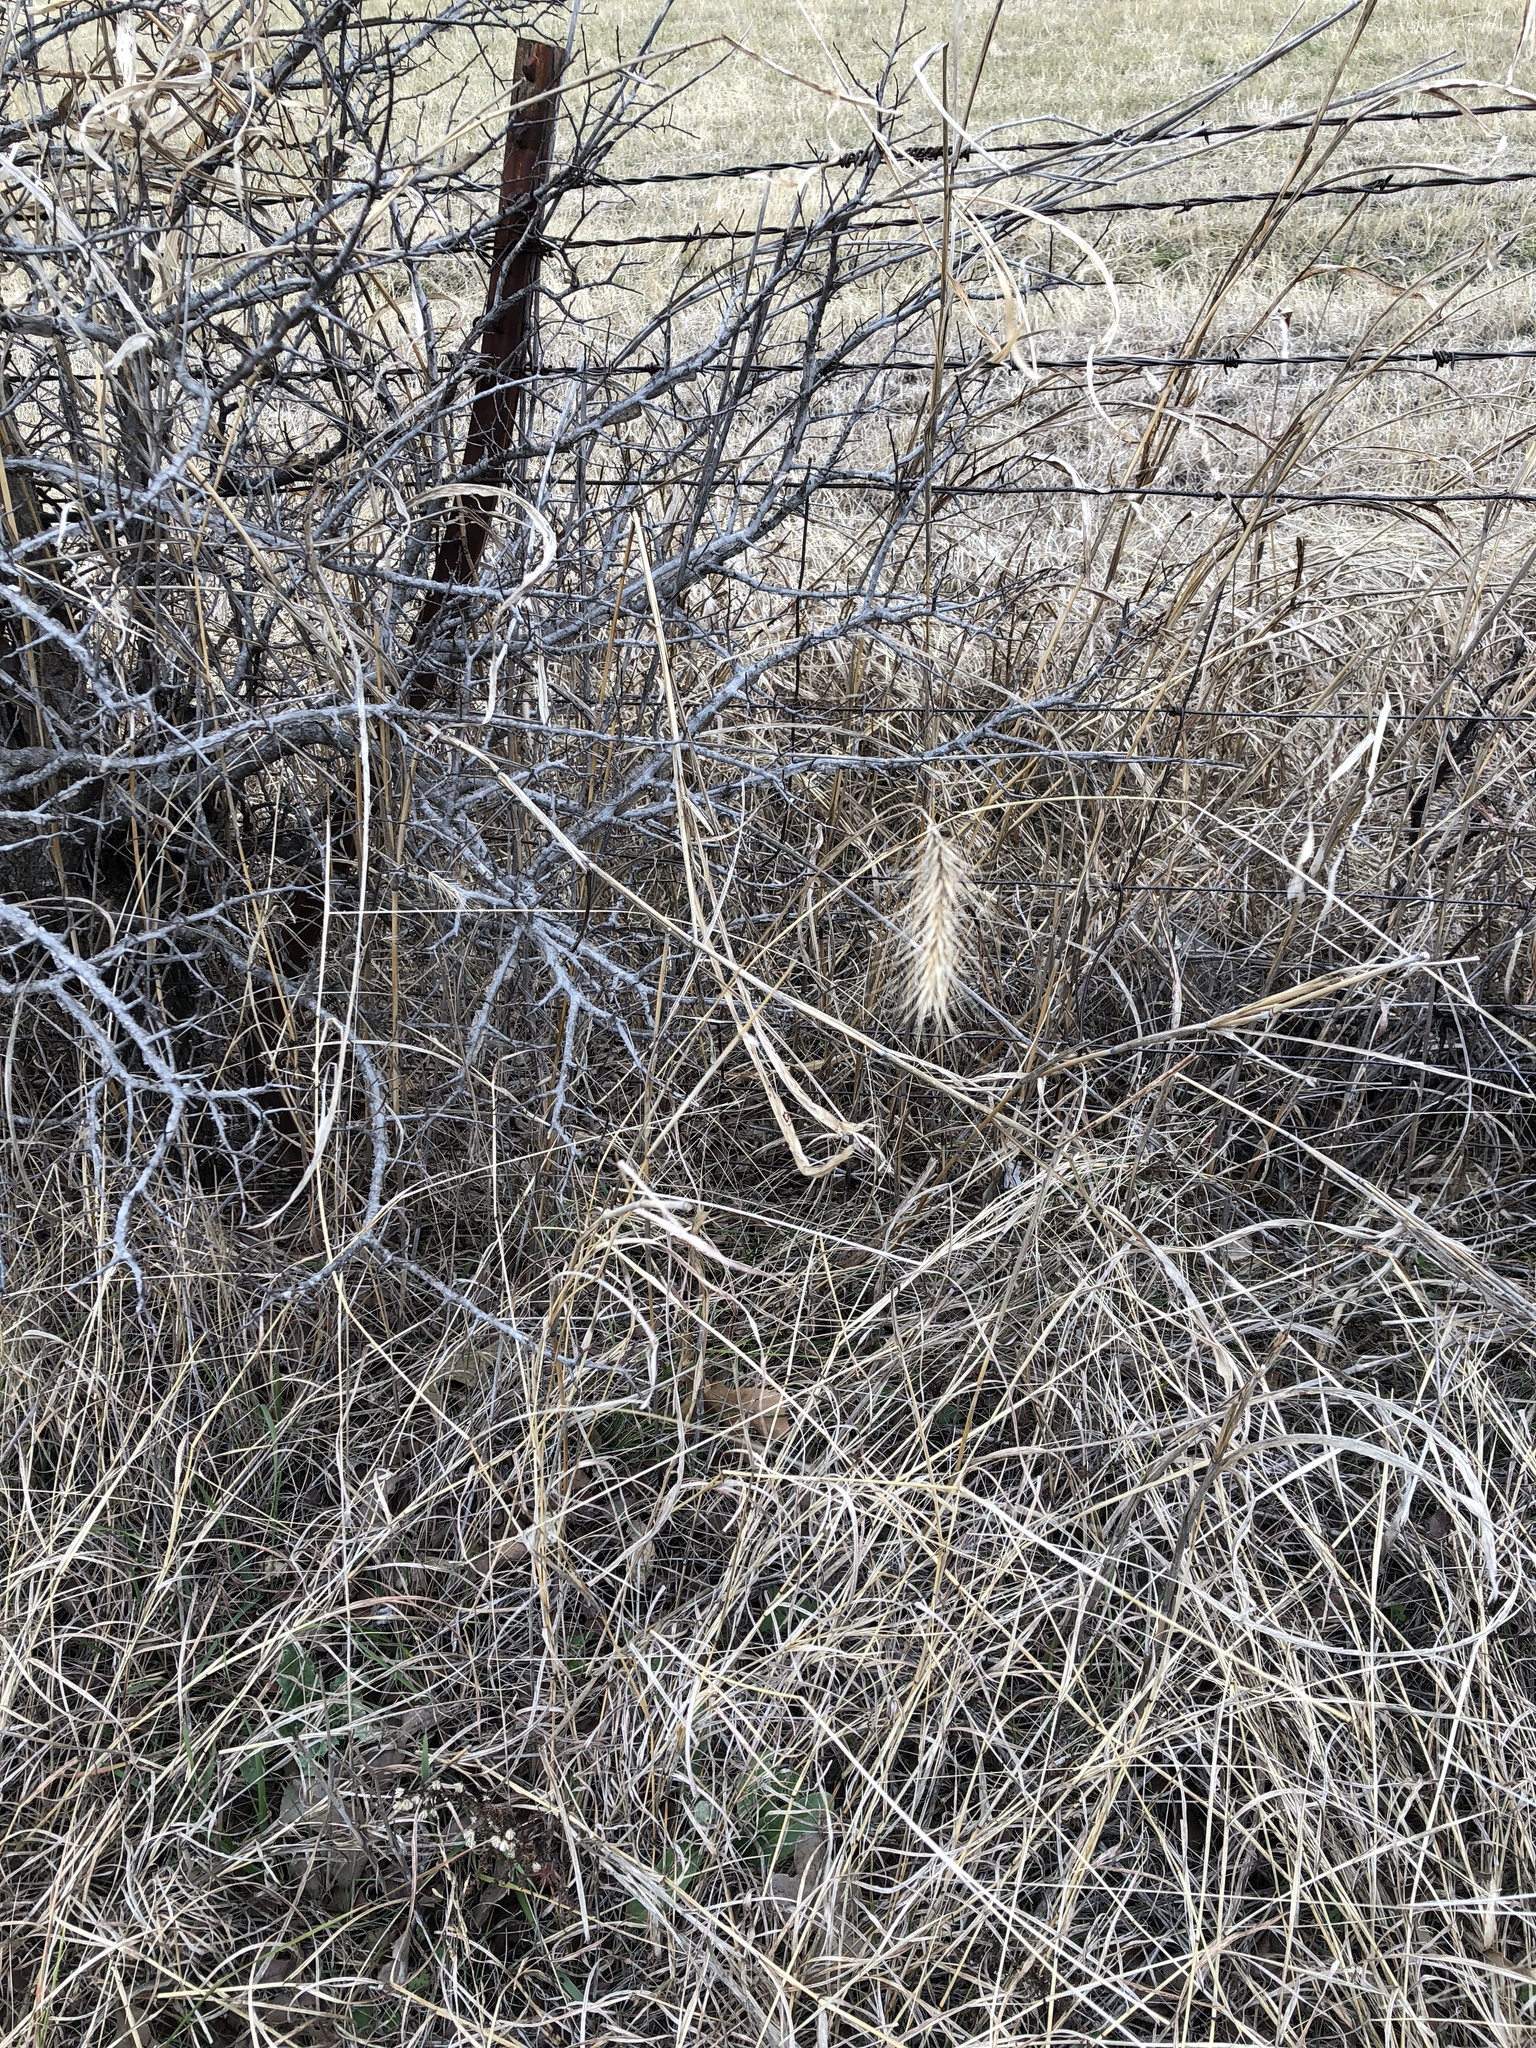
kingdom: Plantae
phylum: Tracheophyta
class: Liliopsida
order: Poales
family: Poaceae
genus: Elymus
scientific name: Elymus canadensis
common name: Canada wild rye
